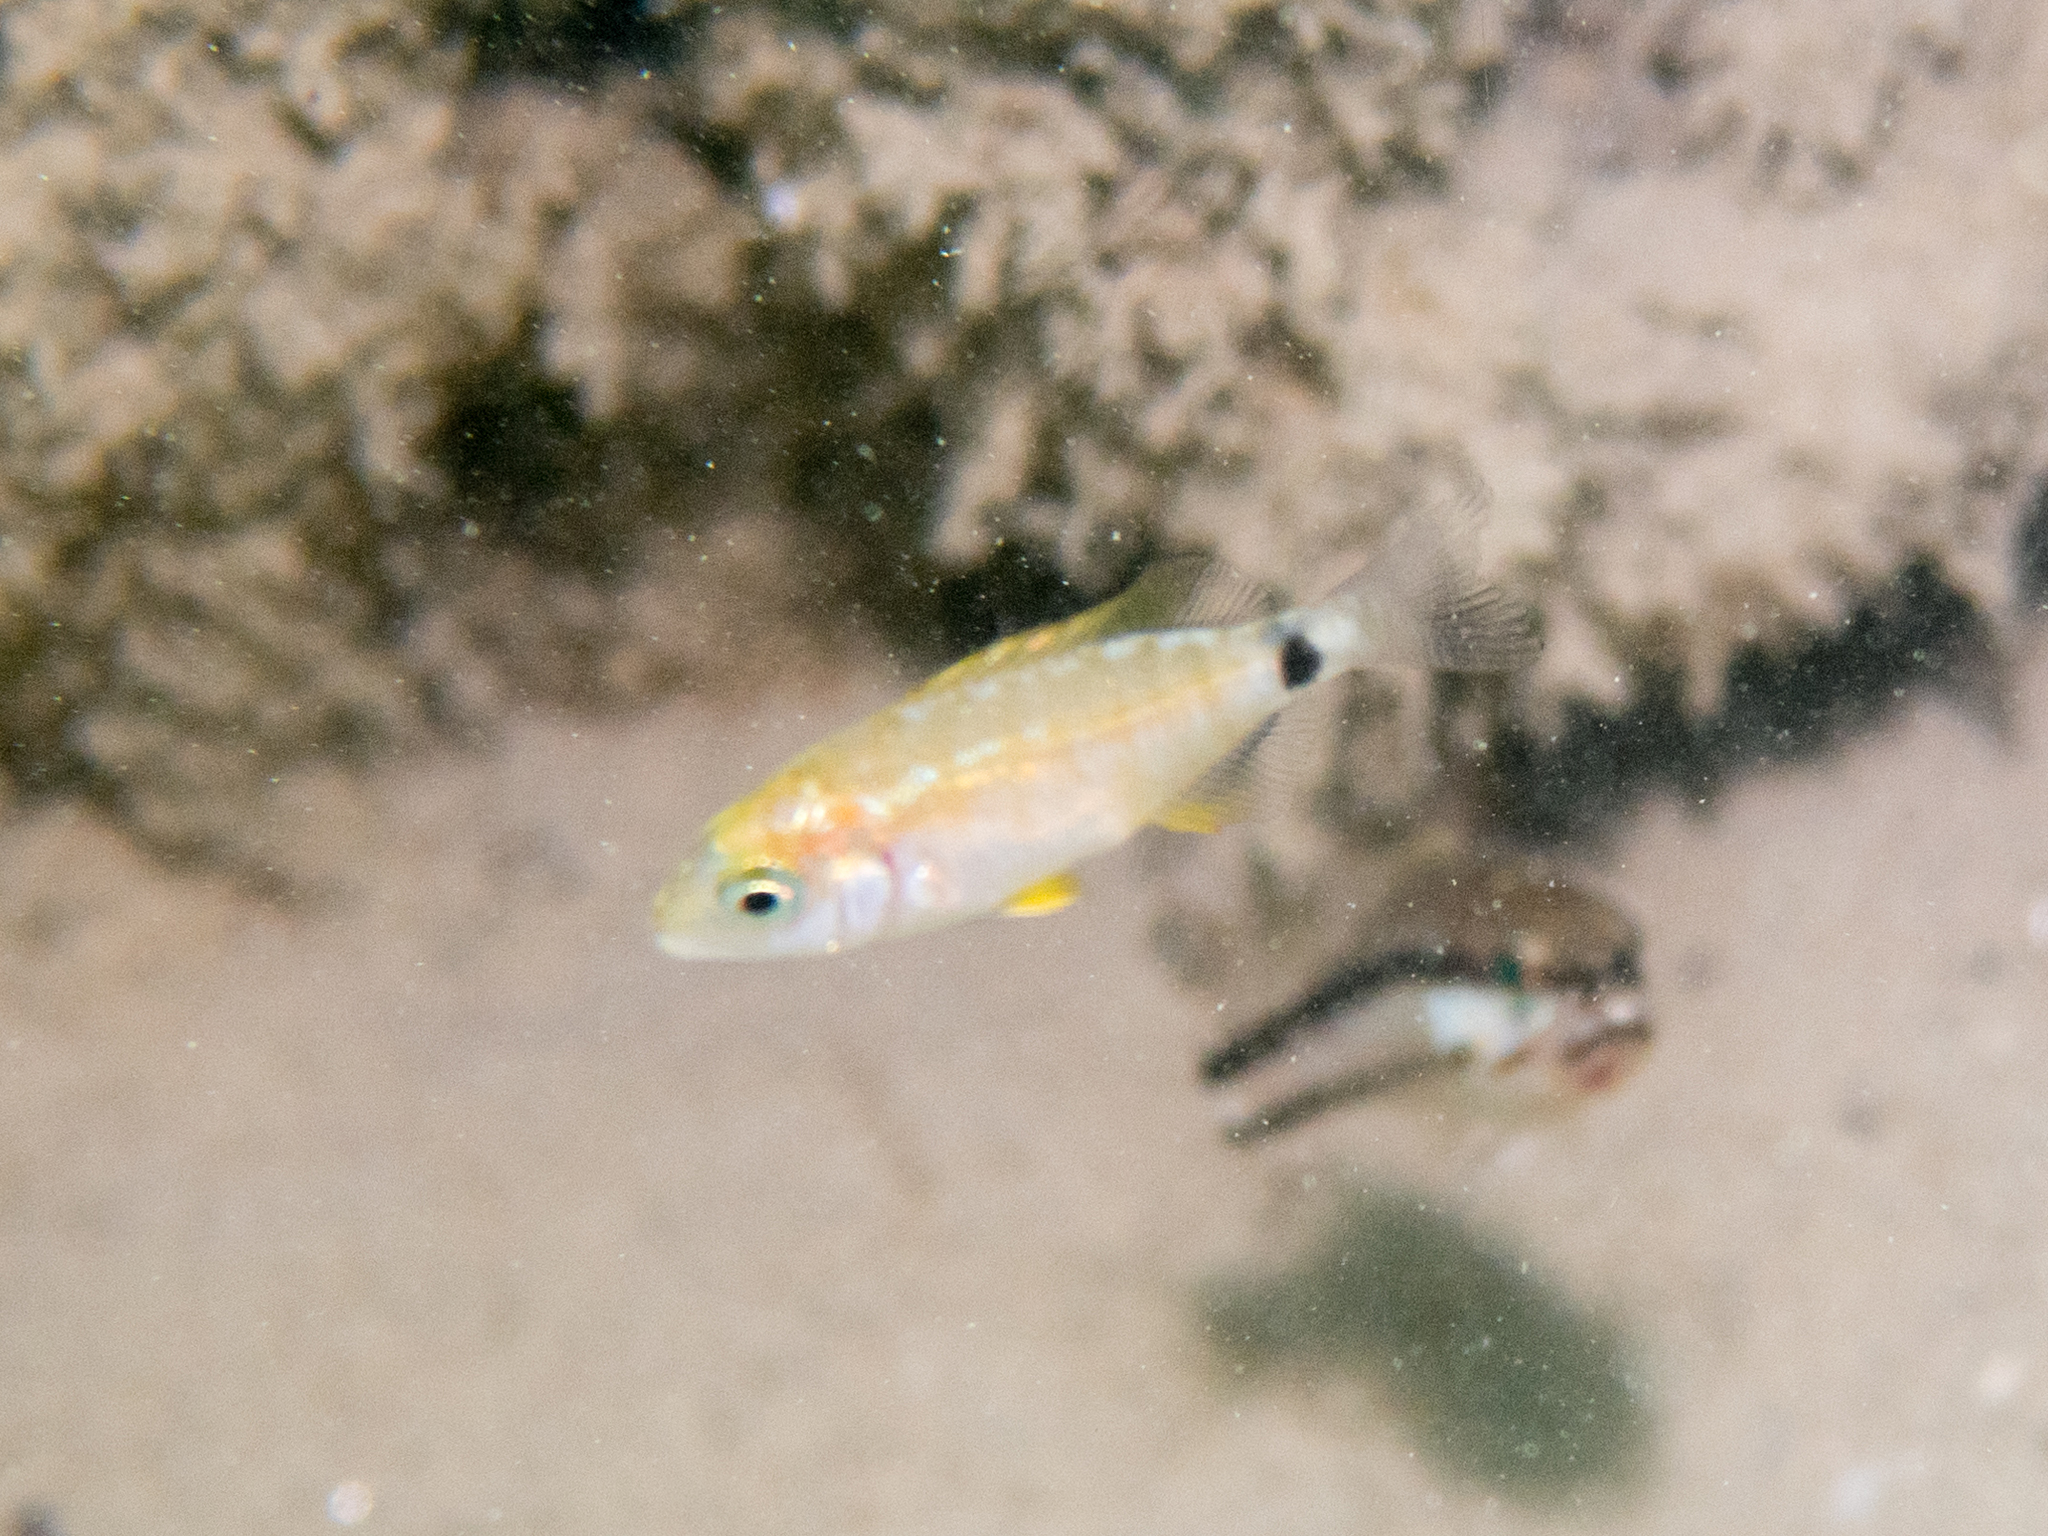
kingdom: Animalia
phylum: Chordata
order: Perciformes
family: Sparidae
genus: Diplodus
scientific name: Diplodus annularis
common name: Annular seabream
